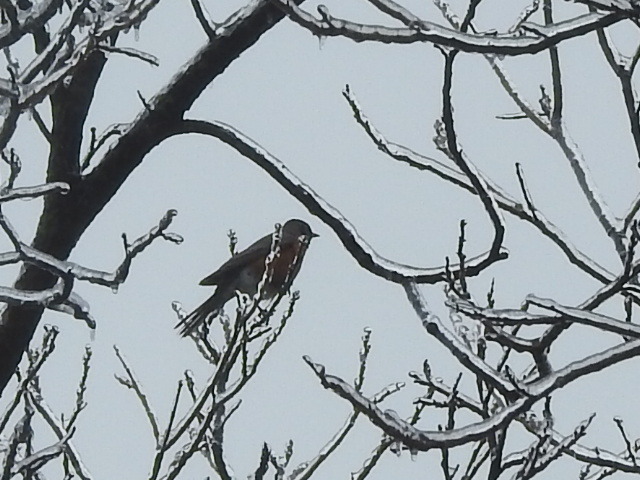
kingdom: Animalia
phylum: Chordata
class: Aves
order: Passeriformes
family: Turdidae
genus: Turdus
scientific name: Turdus migratorius
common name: American robin
